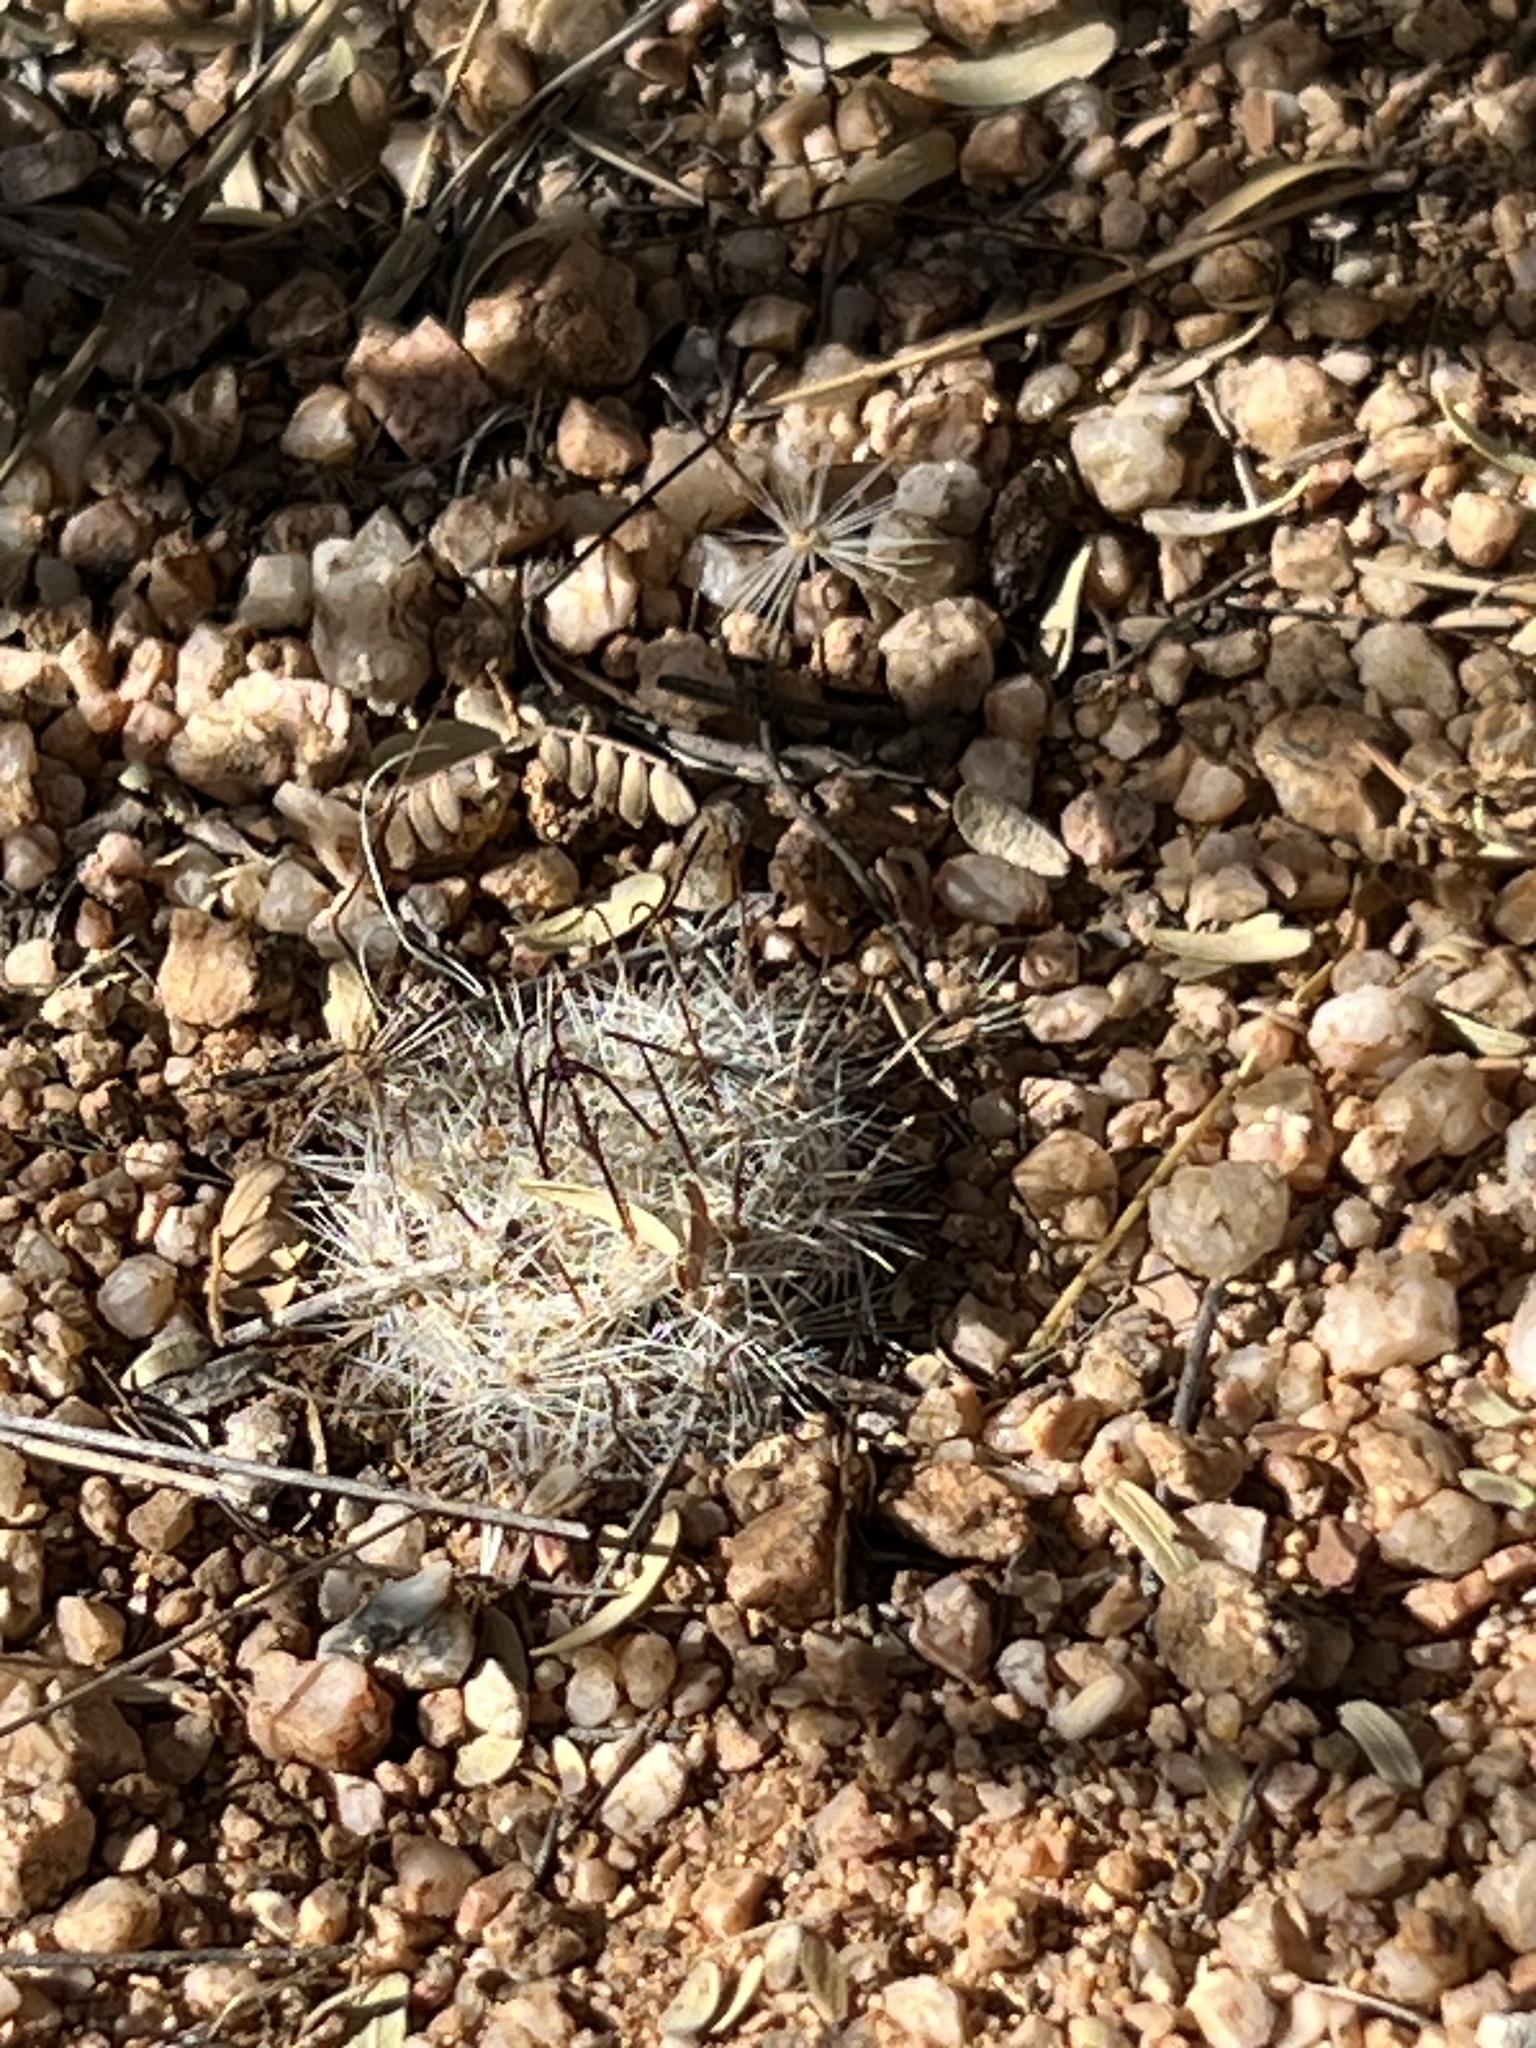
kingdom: Plantae
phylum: Tracheophyta
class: Magnoliopsida
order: Caryophyllales
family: Cactaceae
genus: Cochemiea
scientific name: Cochemiea grahamii
